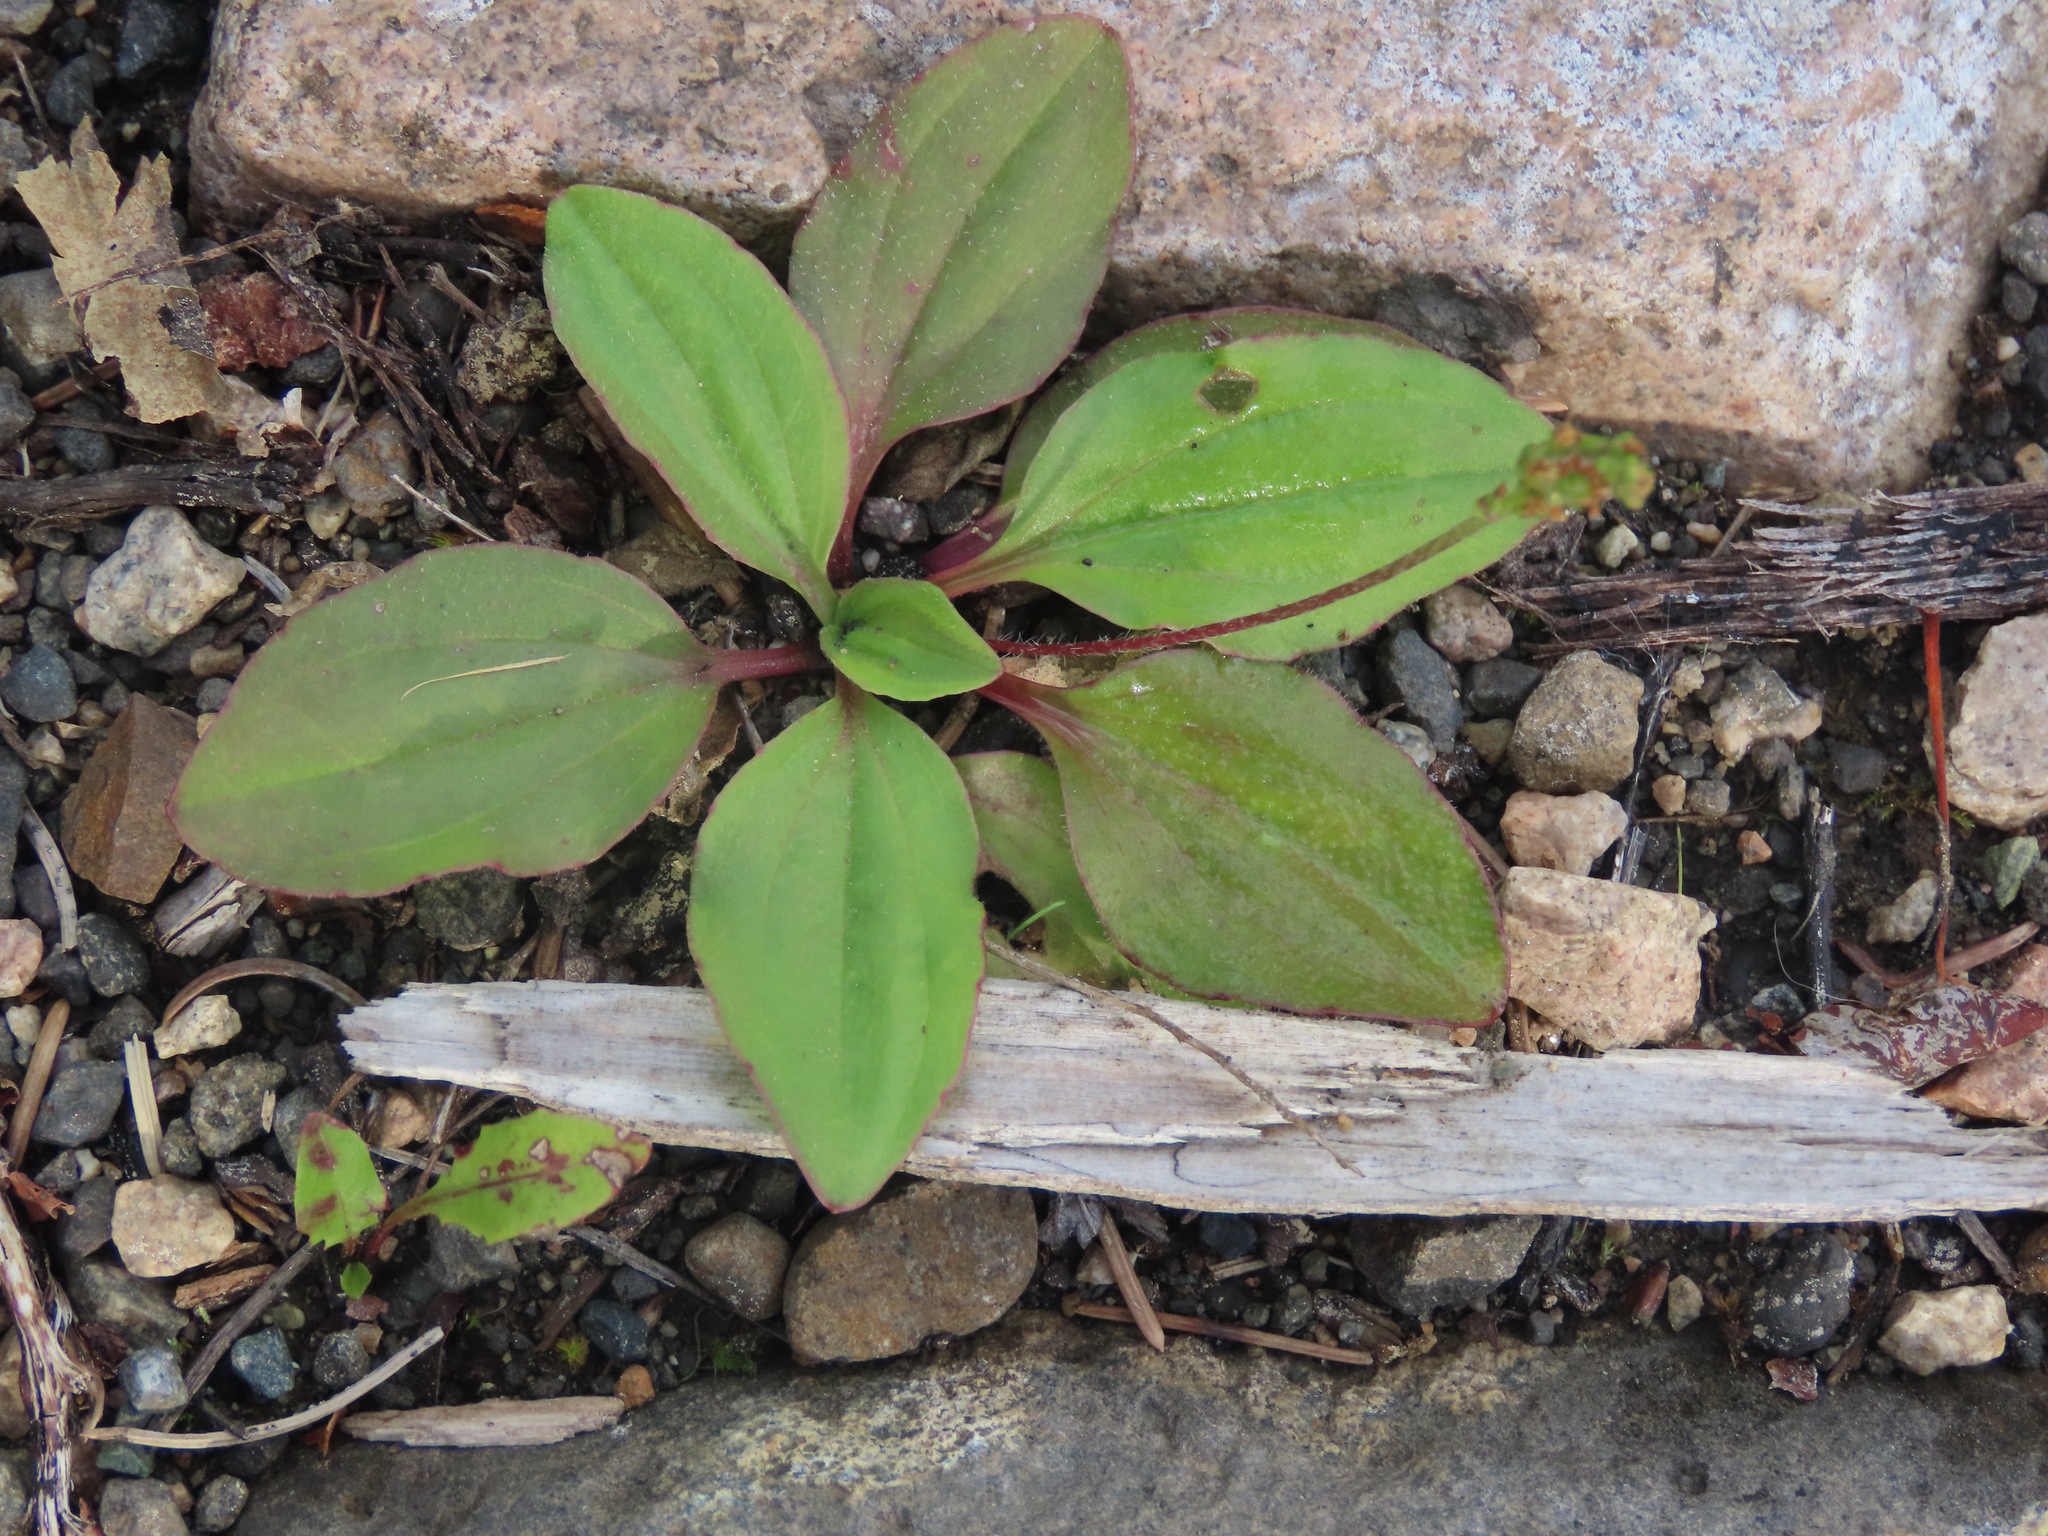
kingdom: Plantae
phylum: Tracheophyta
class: Magnoliopsida
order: Lamiales
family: Plantaginaceae
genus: Plantago
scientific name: Plantago major
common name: Common plantain
